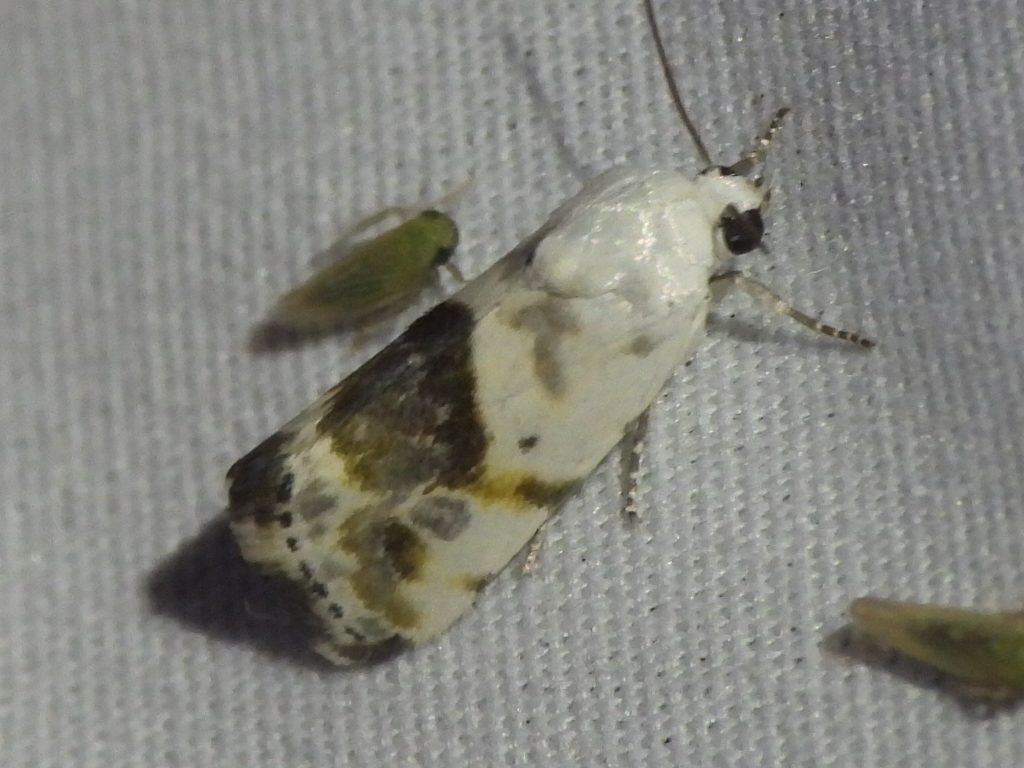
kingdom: Animalia
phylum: Arthropoda
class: Insecta
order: Lepidoptera
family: Noctuidae
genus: Acontia
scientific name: Acontia candefacta
